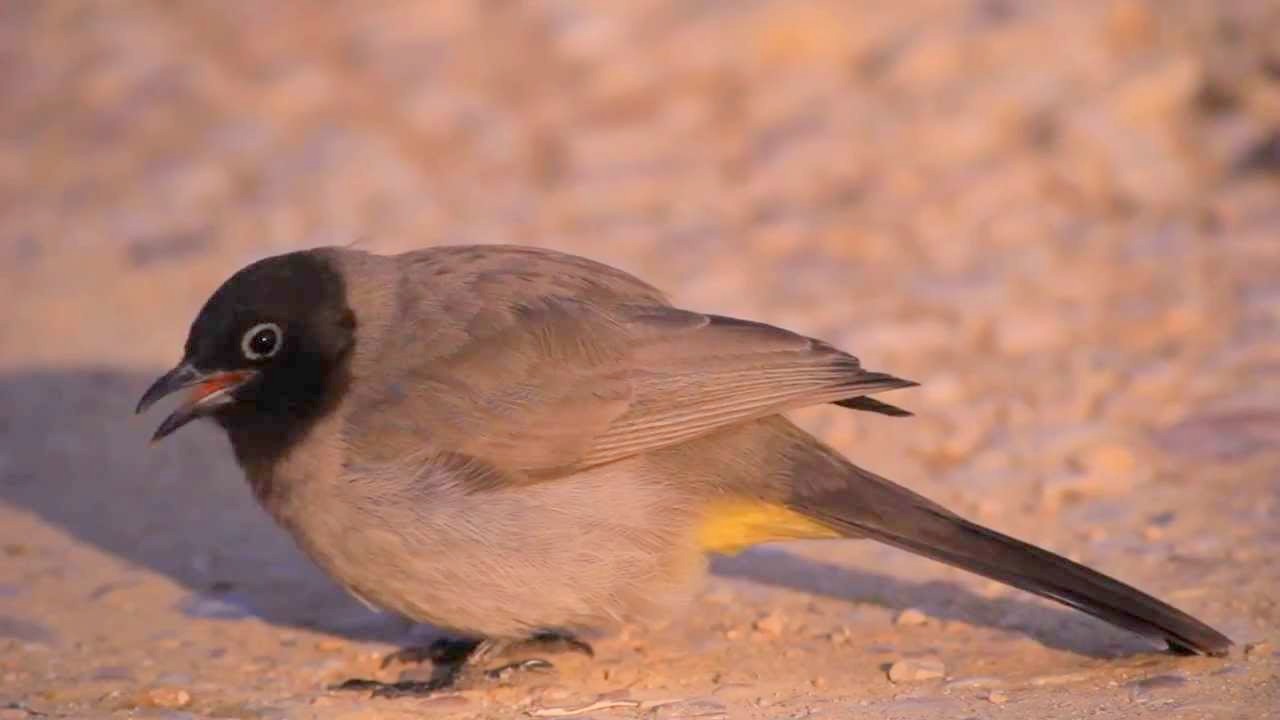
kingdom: Animalia
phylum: Chordata
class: Aves
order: Passeriformes
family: Pycnonotidae
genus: Pycnonotus
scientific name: Pycnonotus xanthopygos
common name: White-spectacled bulbul
